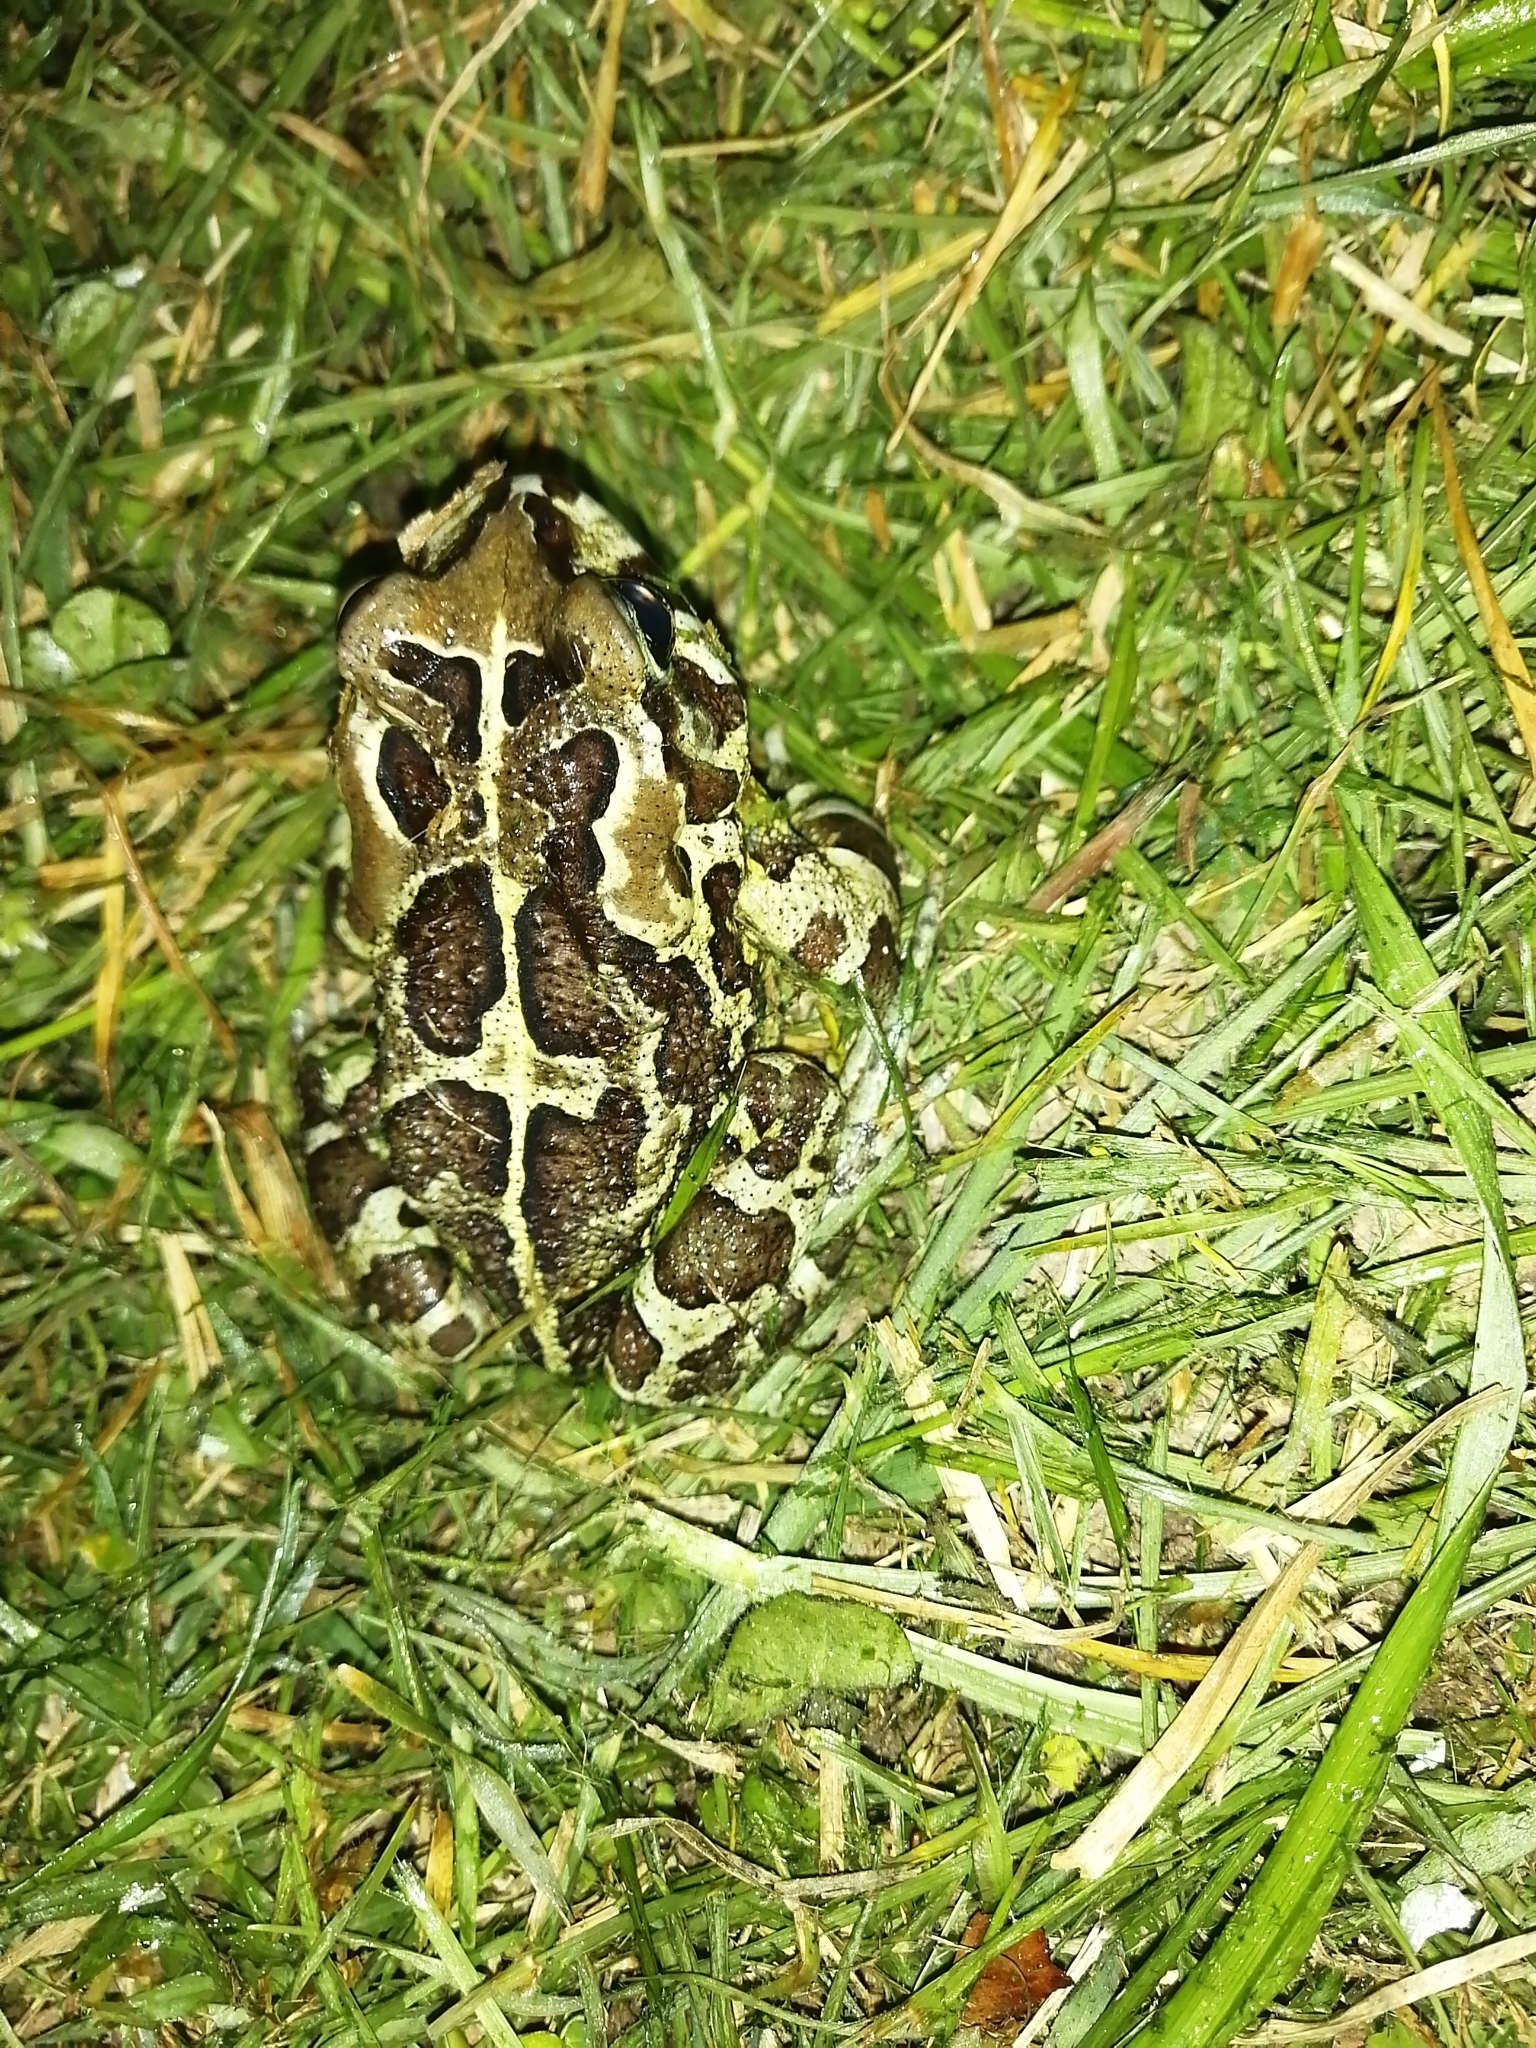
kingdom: Animalia
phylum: Chordata
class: Amphibia
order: Anura
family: Bufonidae
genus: Sclerophrys
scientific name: Sclerophrys pantherina
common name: Panther toad
